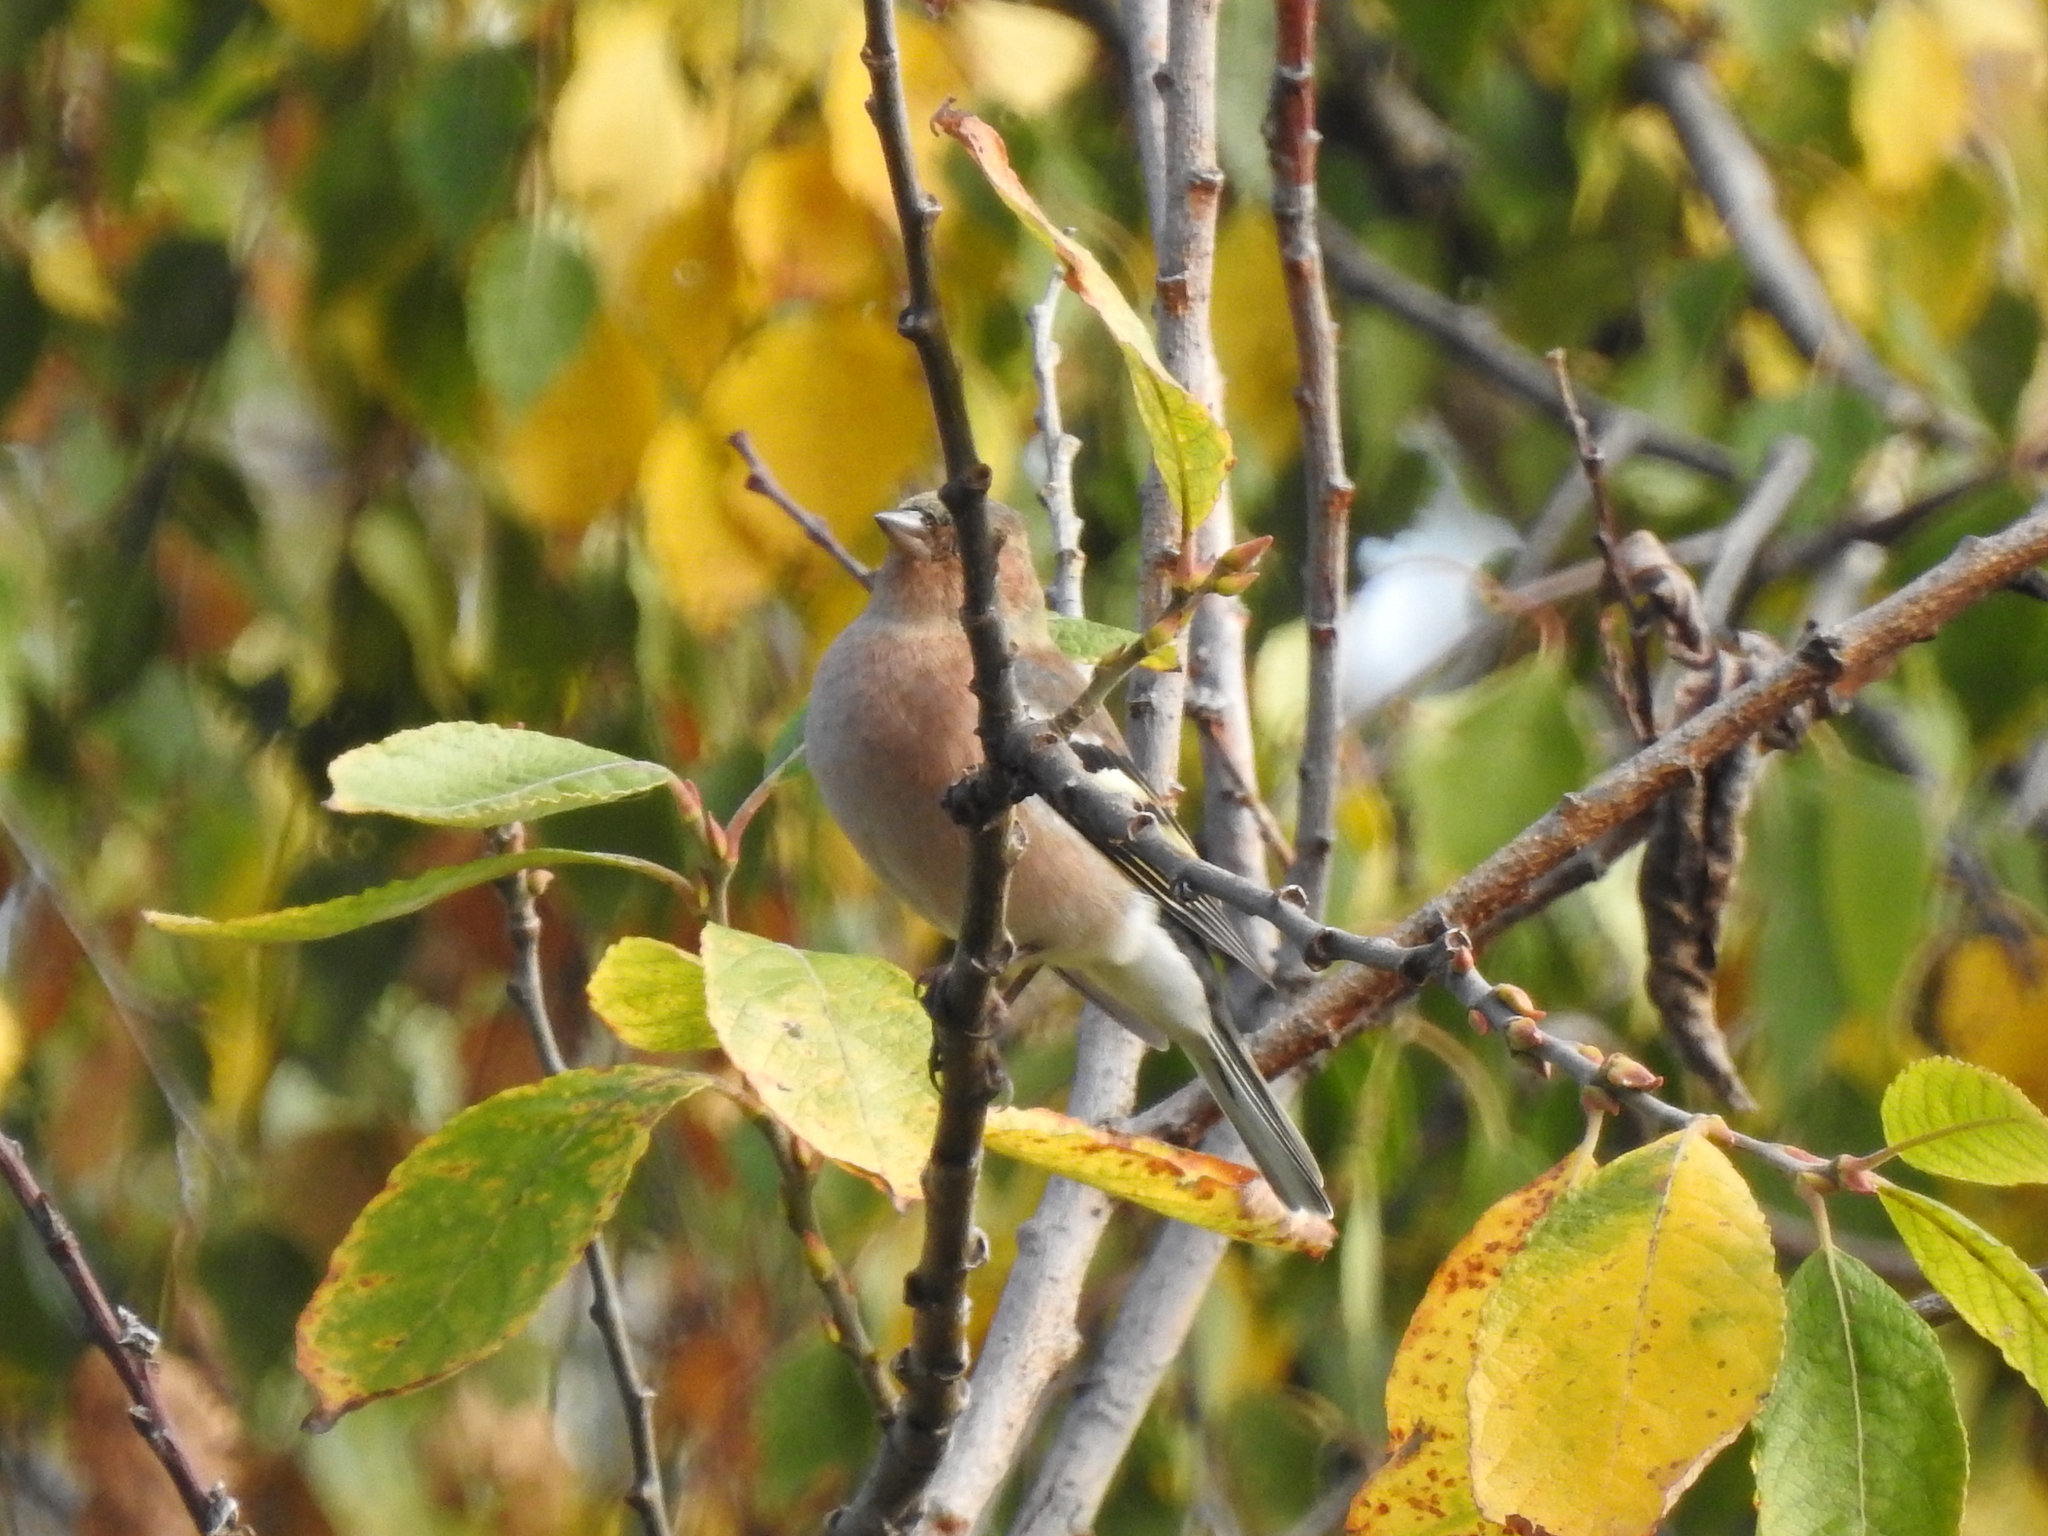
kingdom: Animalia
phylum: Chordata
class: Aves
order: Passeriformes
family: Fringillidae
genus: Fringilla
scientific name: Fringilla coelebs
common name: Common chaffinch
